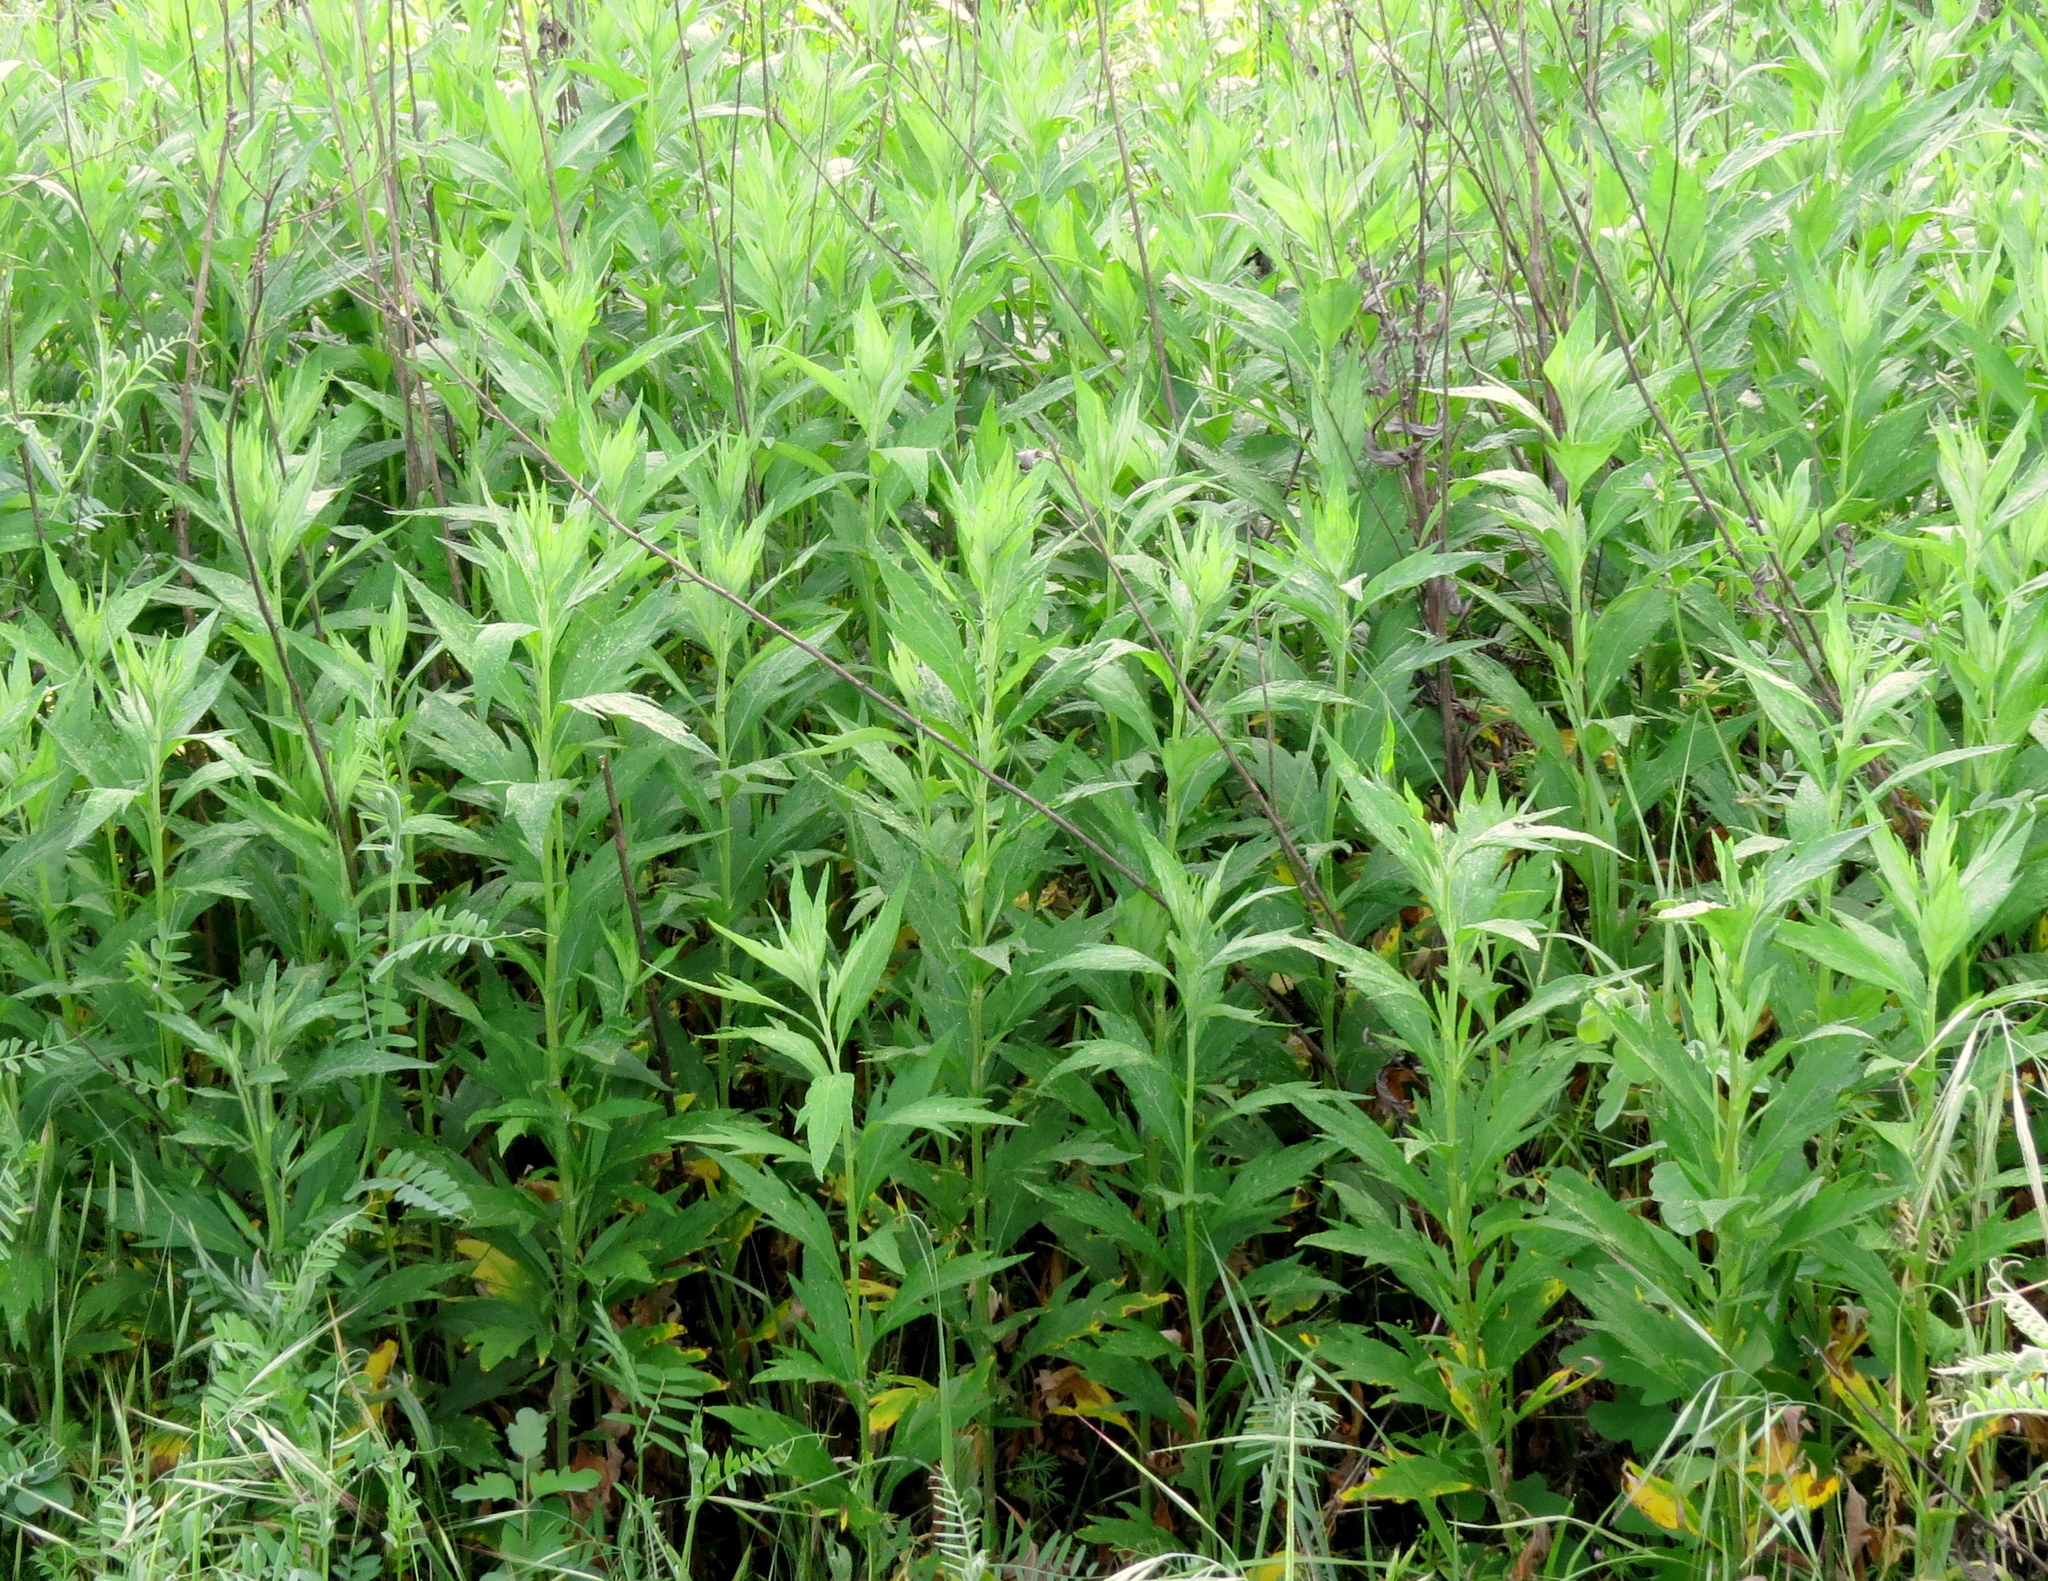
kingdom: Plantae
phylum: Tracheophyta
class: Magnoliopsida
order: Asterales
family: Asteraceae
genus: Artemisia
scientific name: Artemisia douglasiana
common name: Northwest mugwort
